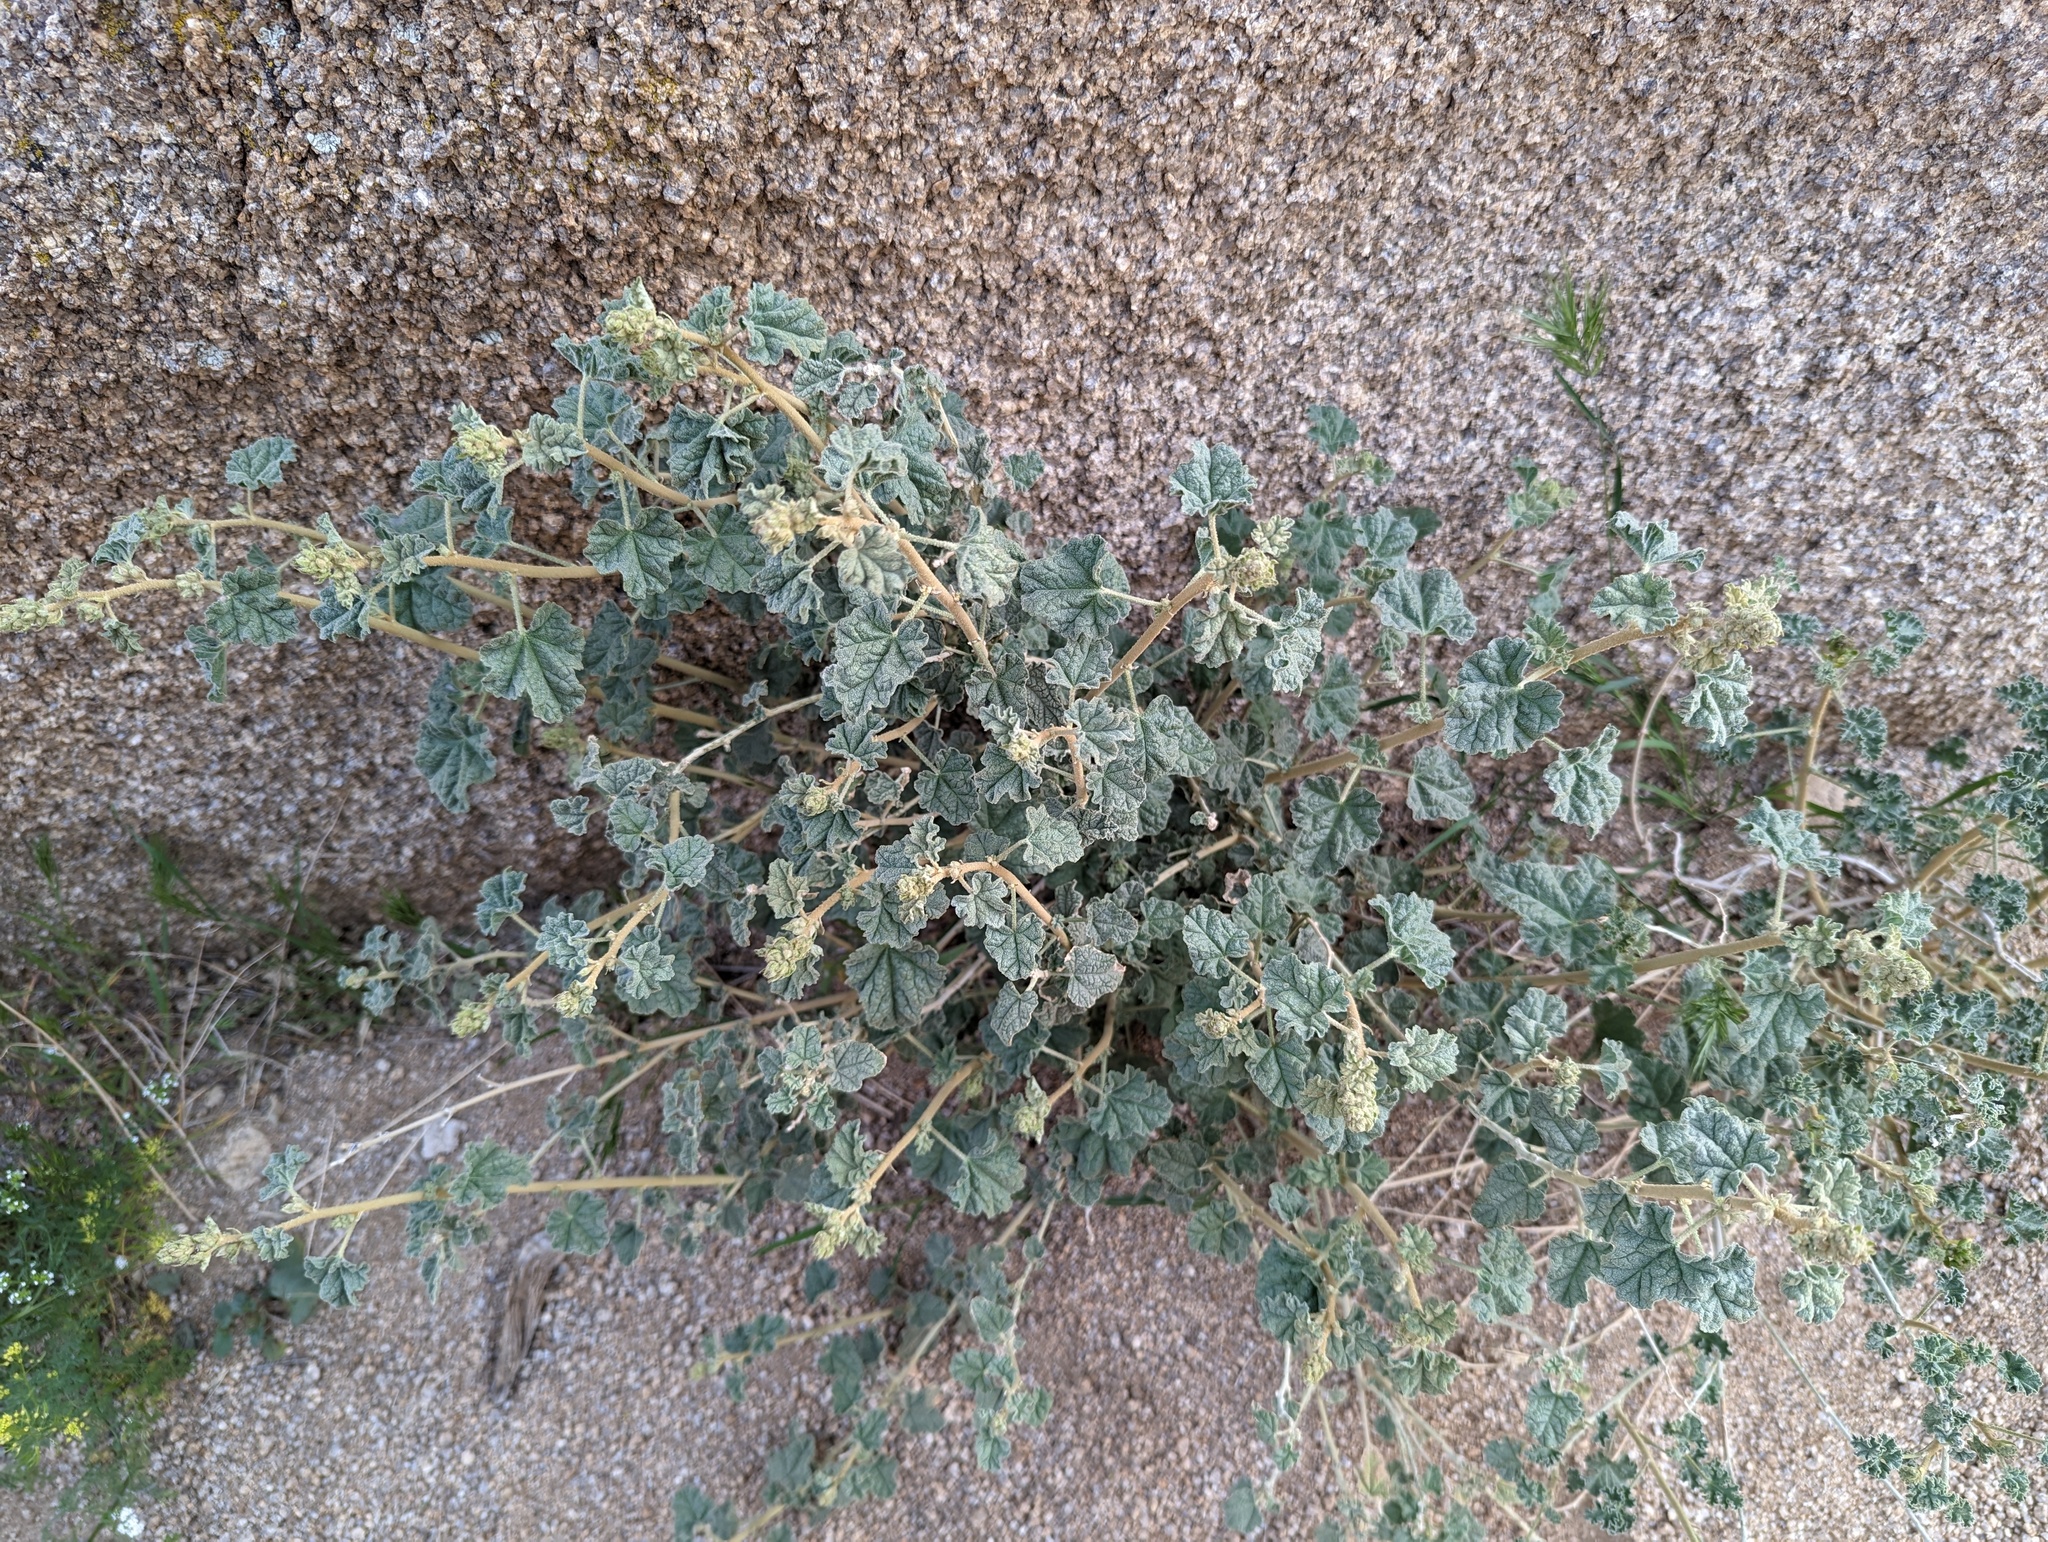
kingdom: Plantae
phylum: Tracheophyta
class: Magnoliopsida
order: Malvales
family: Malvaceae
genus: Sphaeralcea
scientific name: Sphaeralcea ambigua
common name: Apricot globe-mallow
